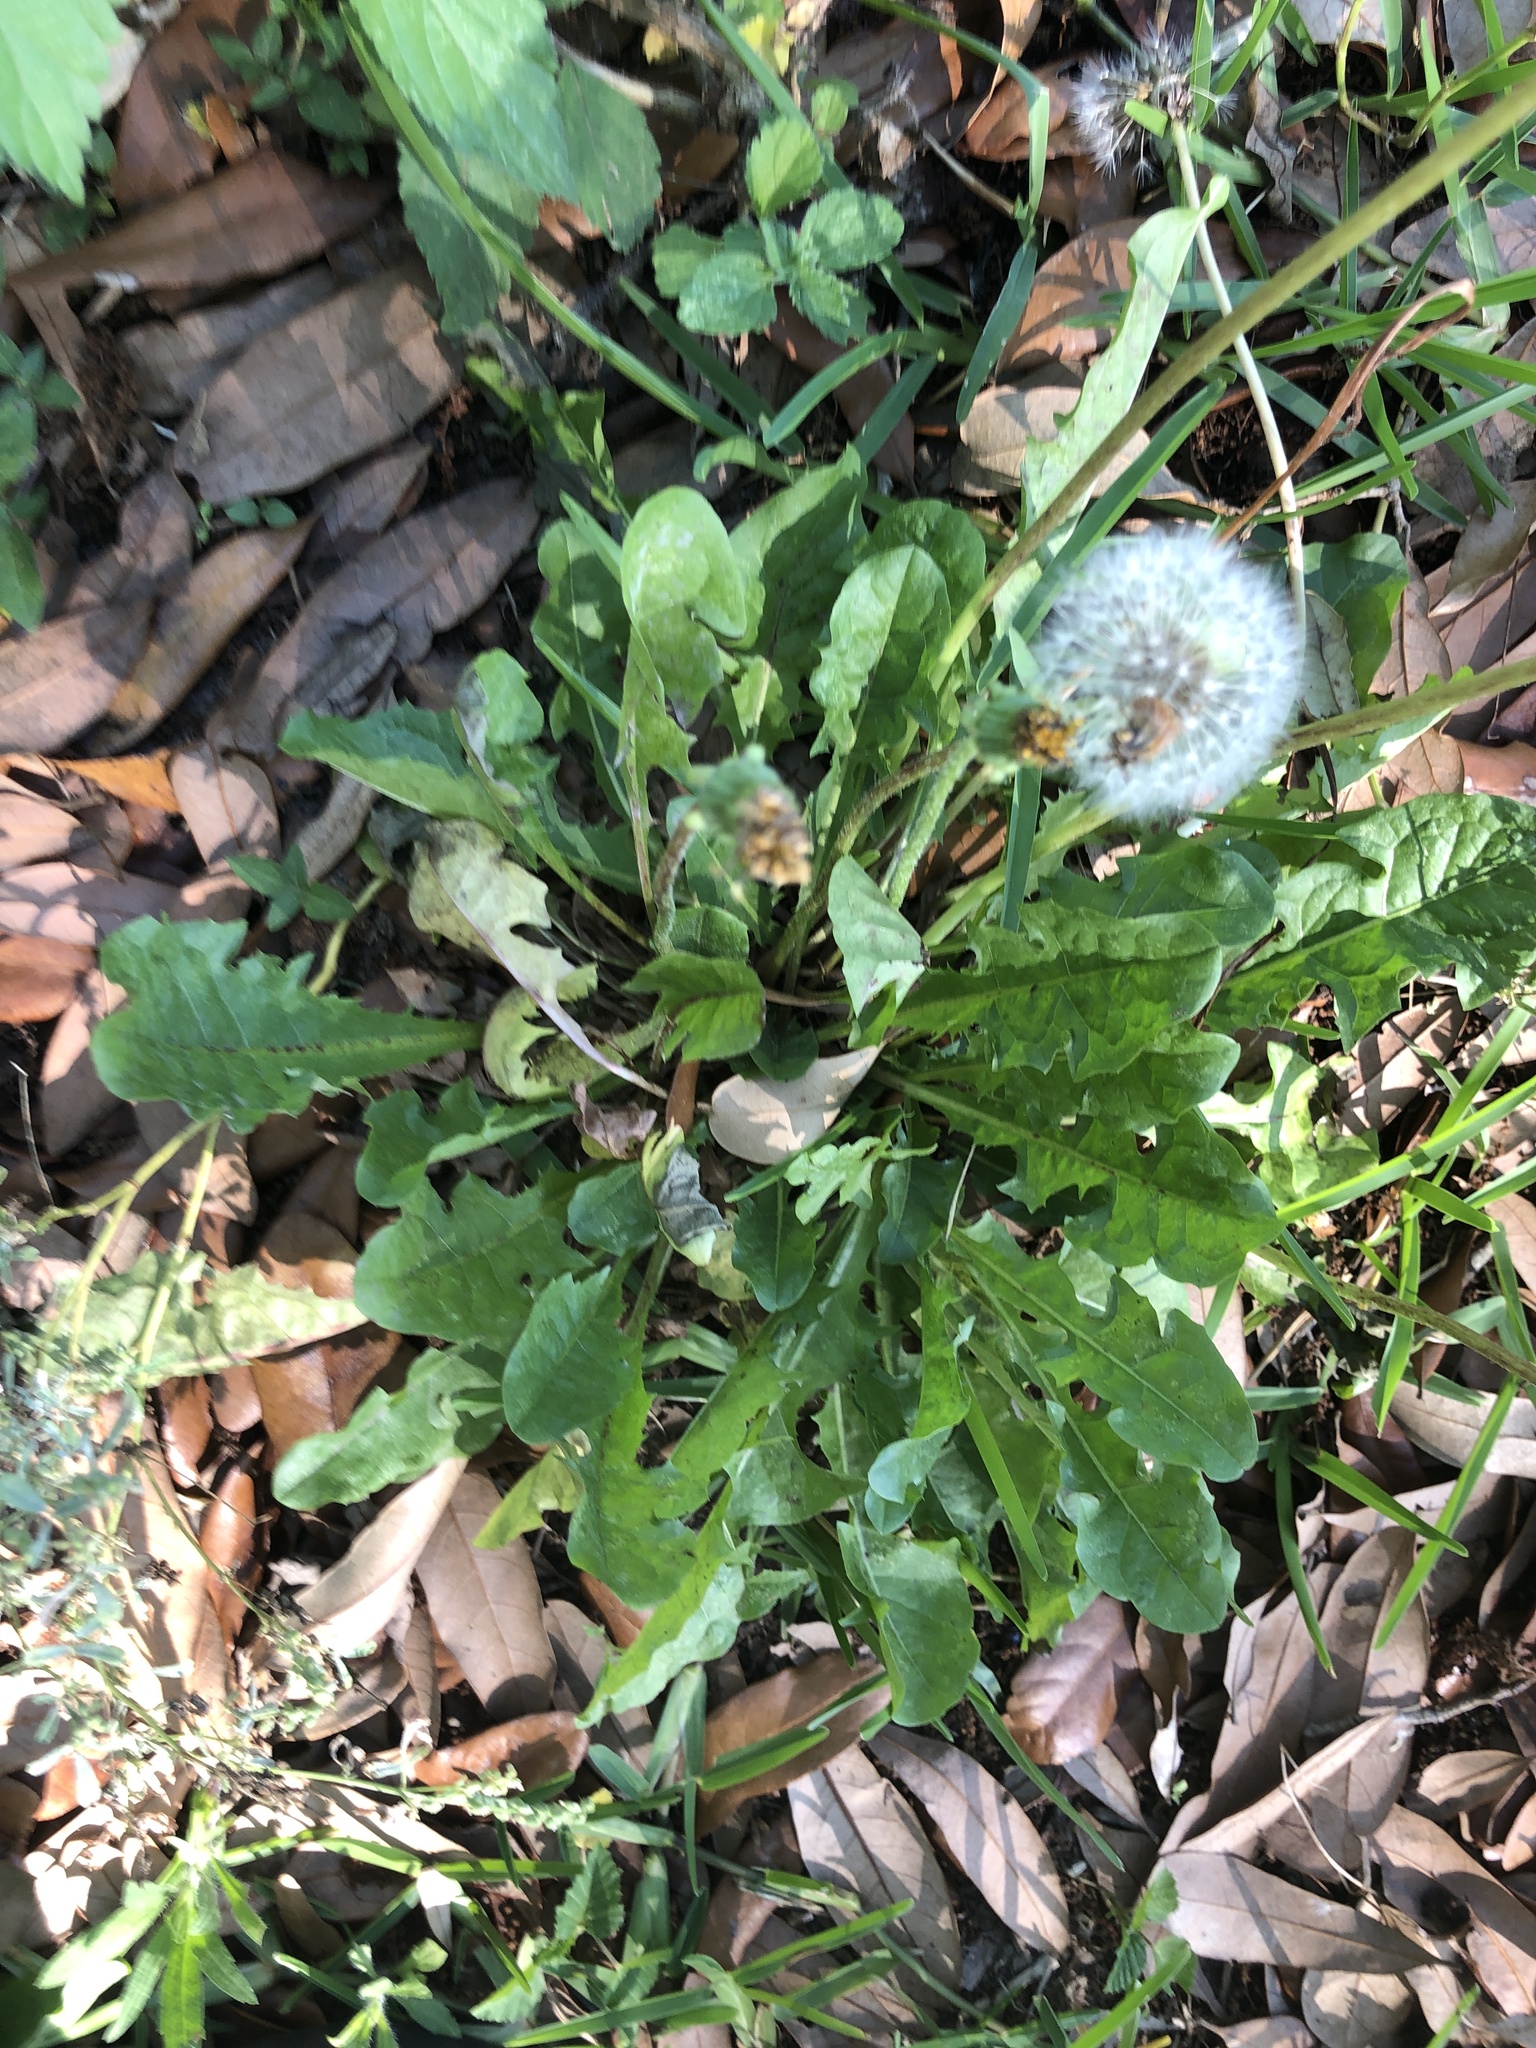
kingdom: Plantae
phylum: Tracheophyta
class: Magnoliopsida
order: Asterales
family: Asteraceae
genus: Taraxacum
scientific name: Taraxacum officinale
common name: Common dandelion
